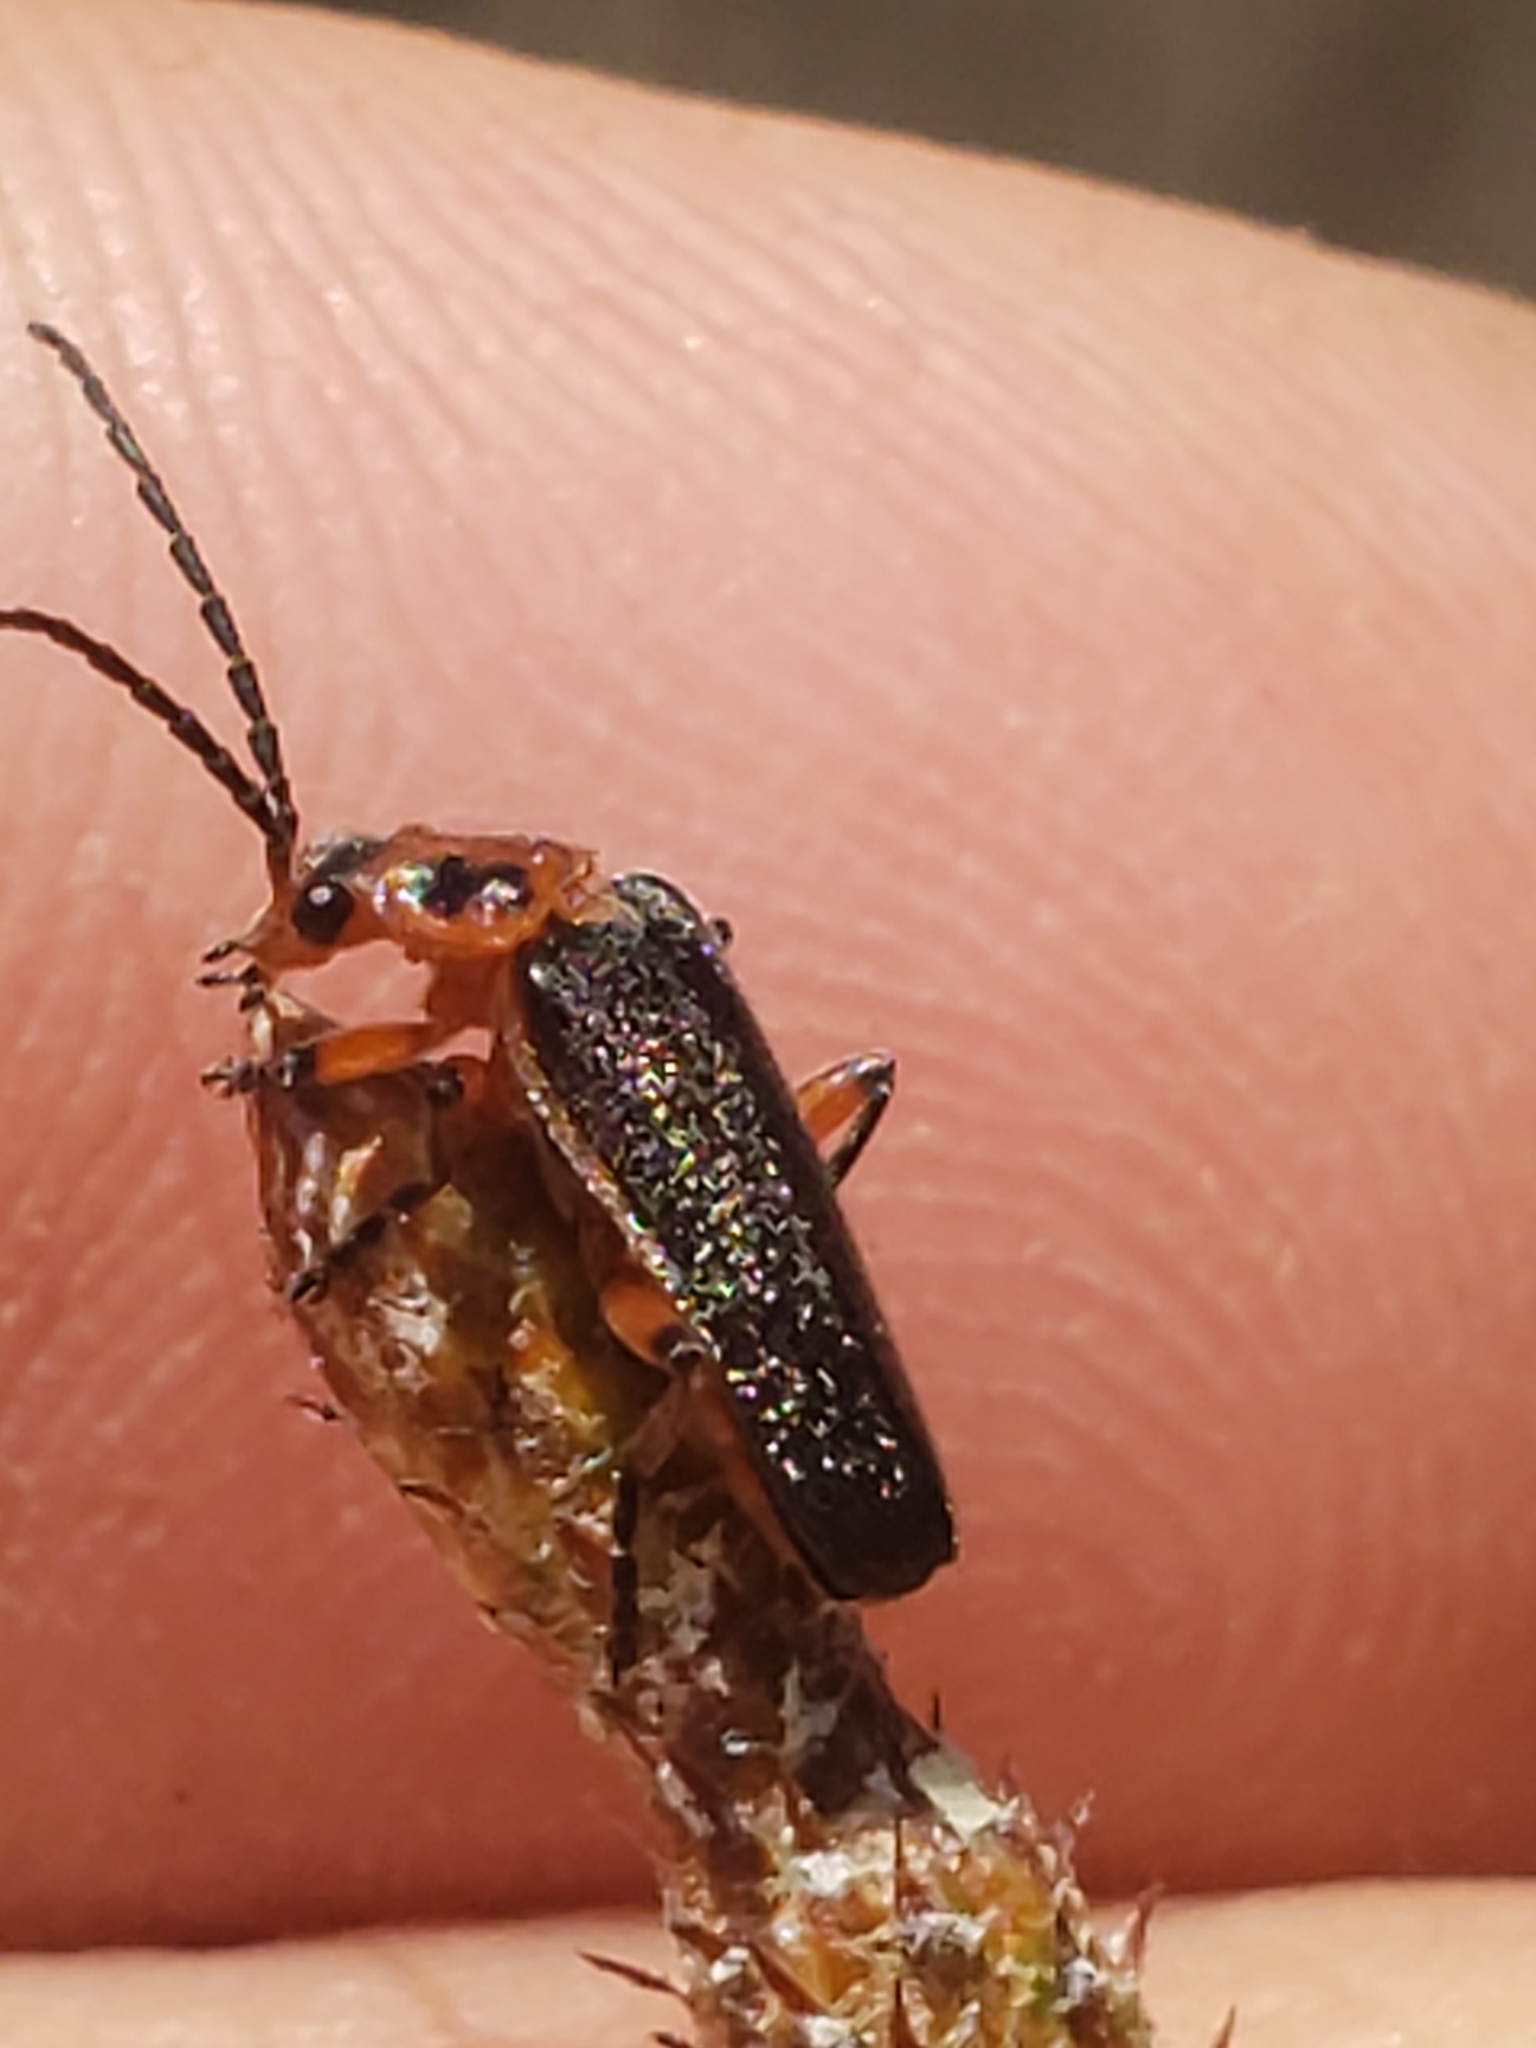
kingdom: Animalia
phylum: Arthropoda
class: Insecta
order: Coleoptera
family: Cantharidae
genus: Atalantycha
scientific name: Atalantycha bilineata
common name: Two-lined leatherwing
